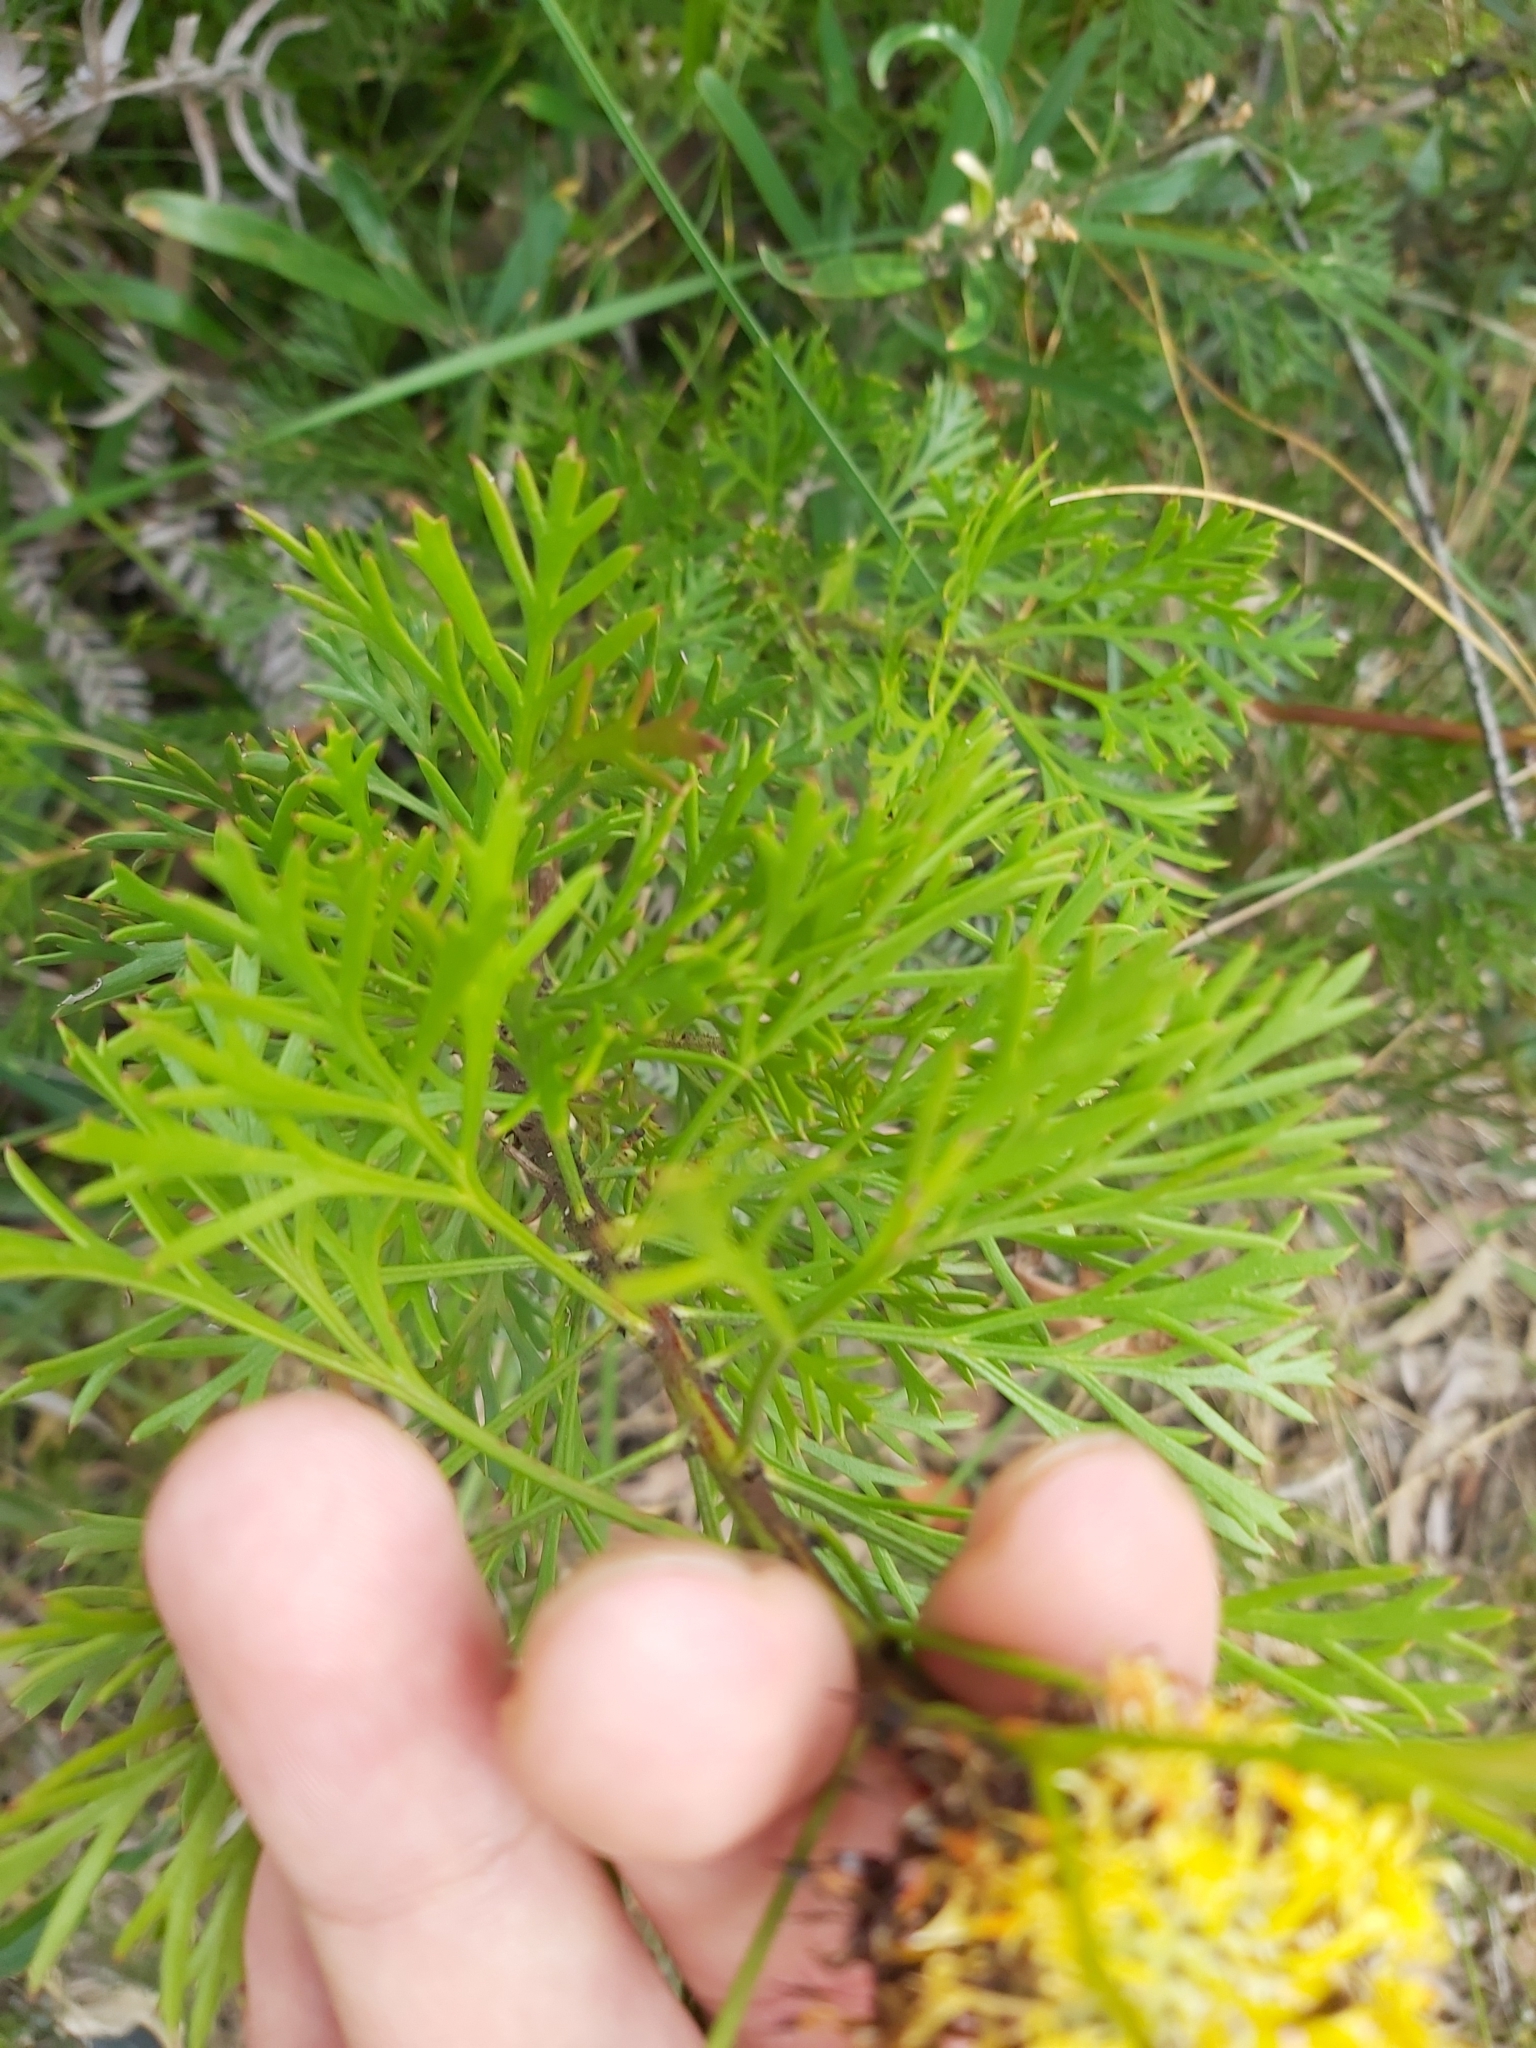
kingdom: Plantae
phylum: Tracheophyta
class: Magnoliopsida
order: Proteales
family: Proteaceae
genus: Isopogon
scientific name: Isopogon anemonifolius
